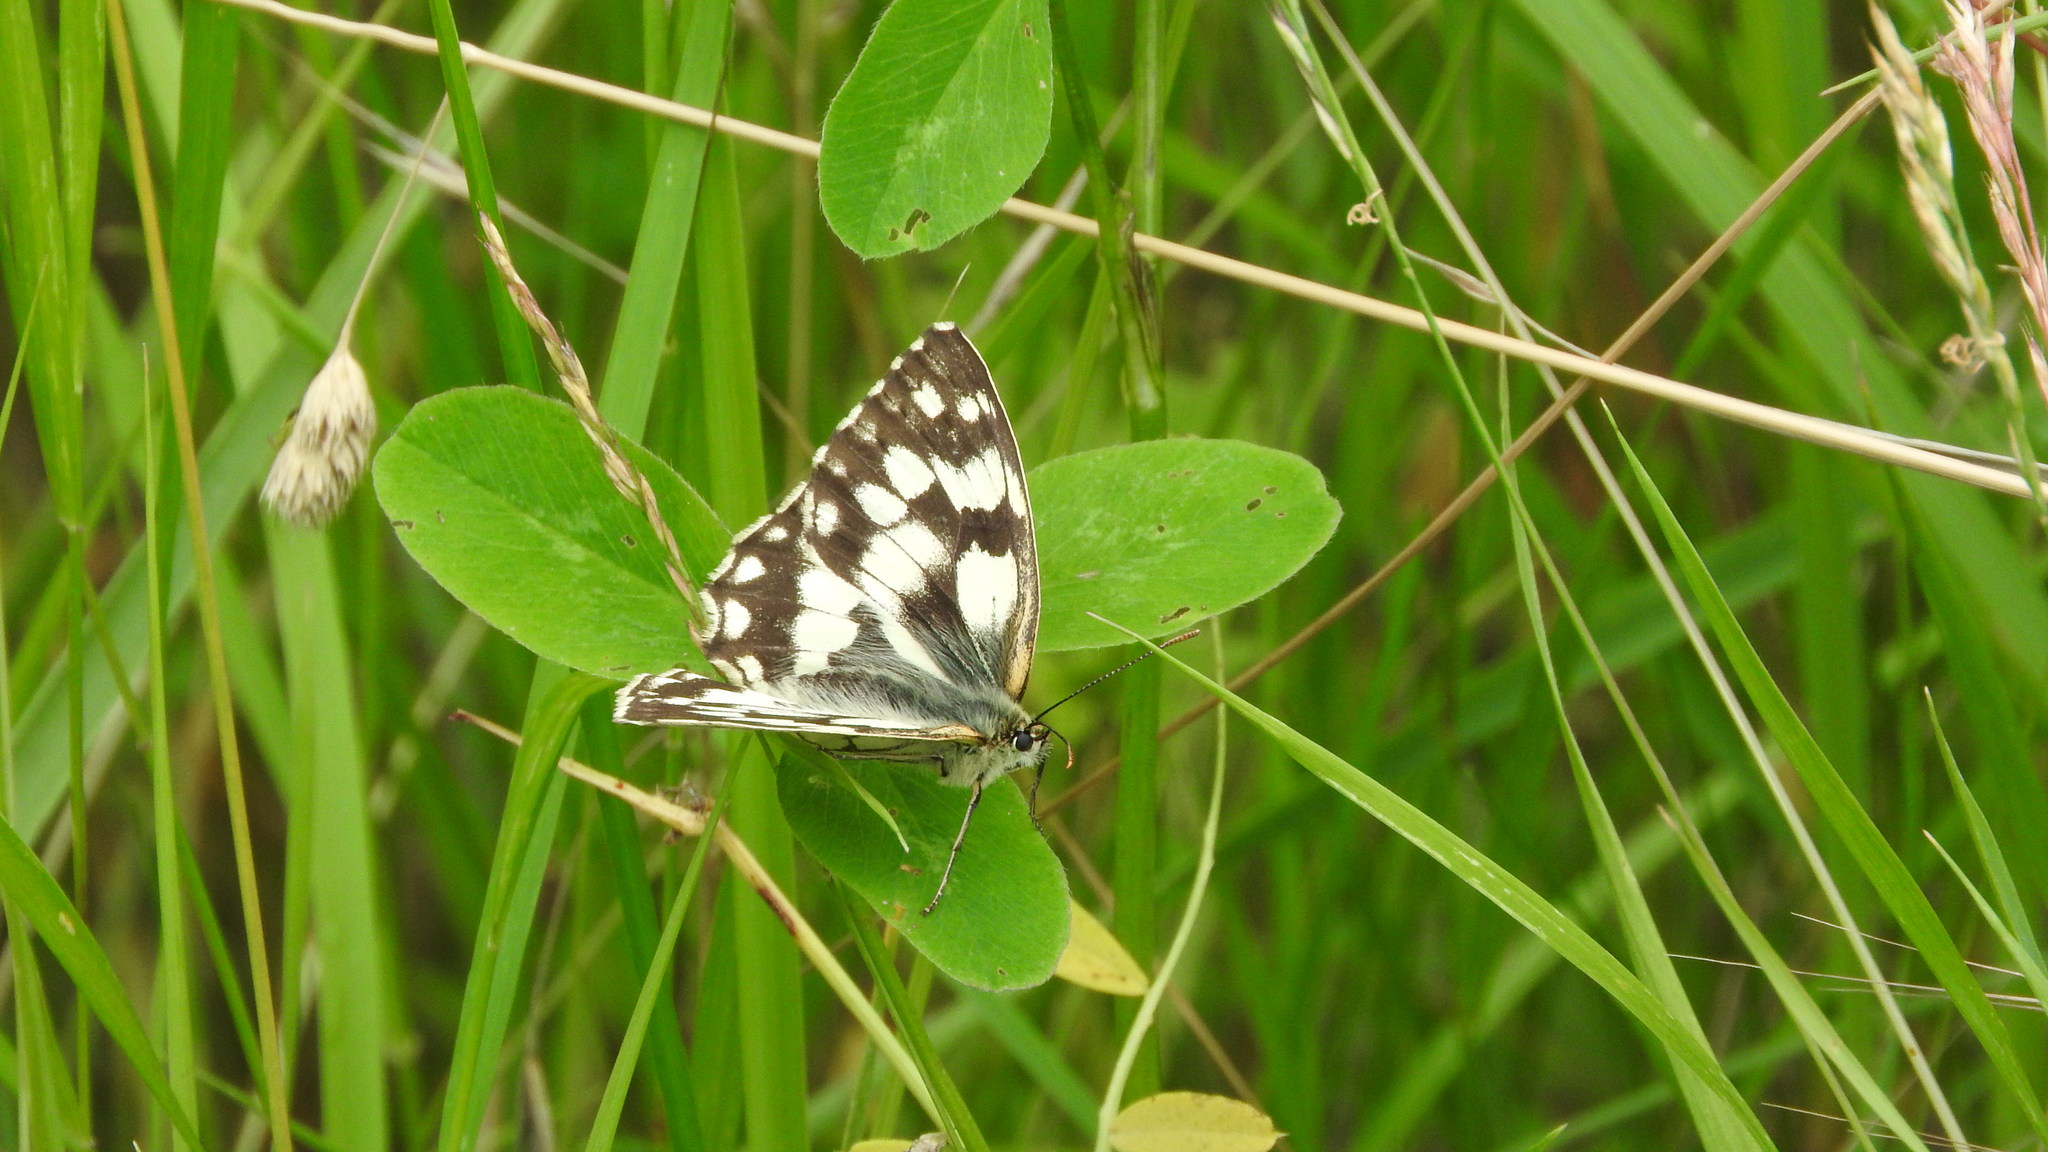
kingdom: Animalia
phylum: Arthropoda
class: Insecta
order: Lepidoptera
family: Nymphalidae
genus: Melanargia
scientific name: Melanargia galathea
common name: Marbled white
